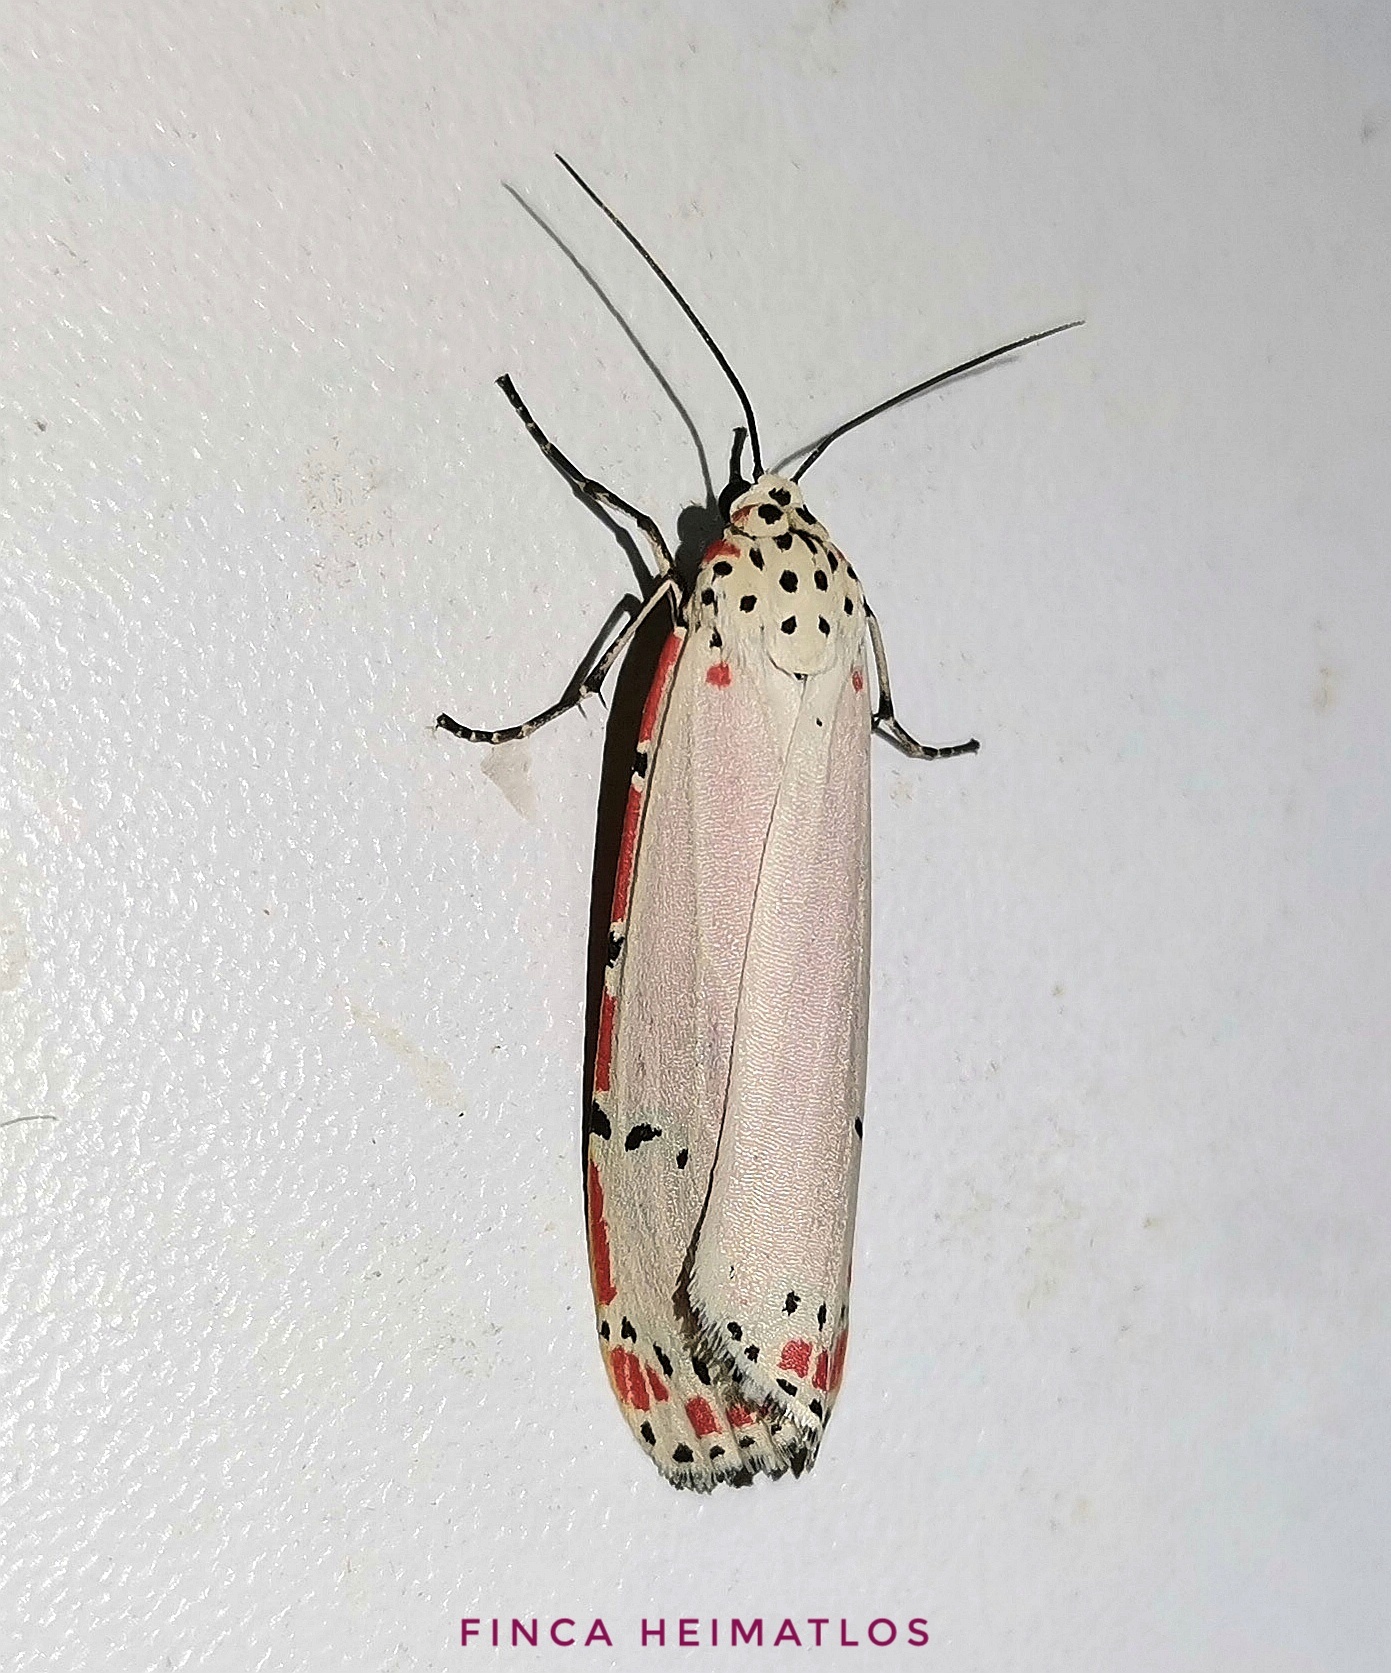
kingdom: Animalia
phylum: Arthropoda
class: Insecta
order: Lepidoptera
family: Erebidae
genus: Utetheisa
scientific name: Utetheisa ornatrix
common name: Beautiful utetheisa
